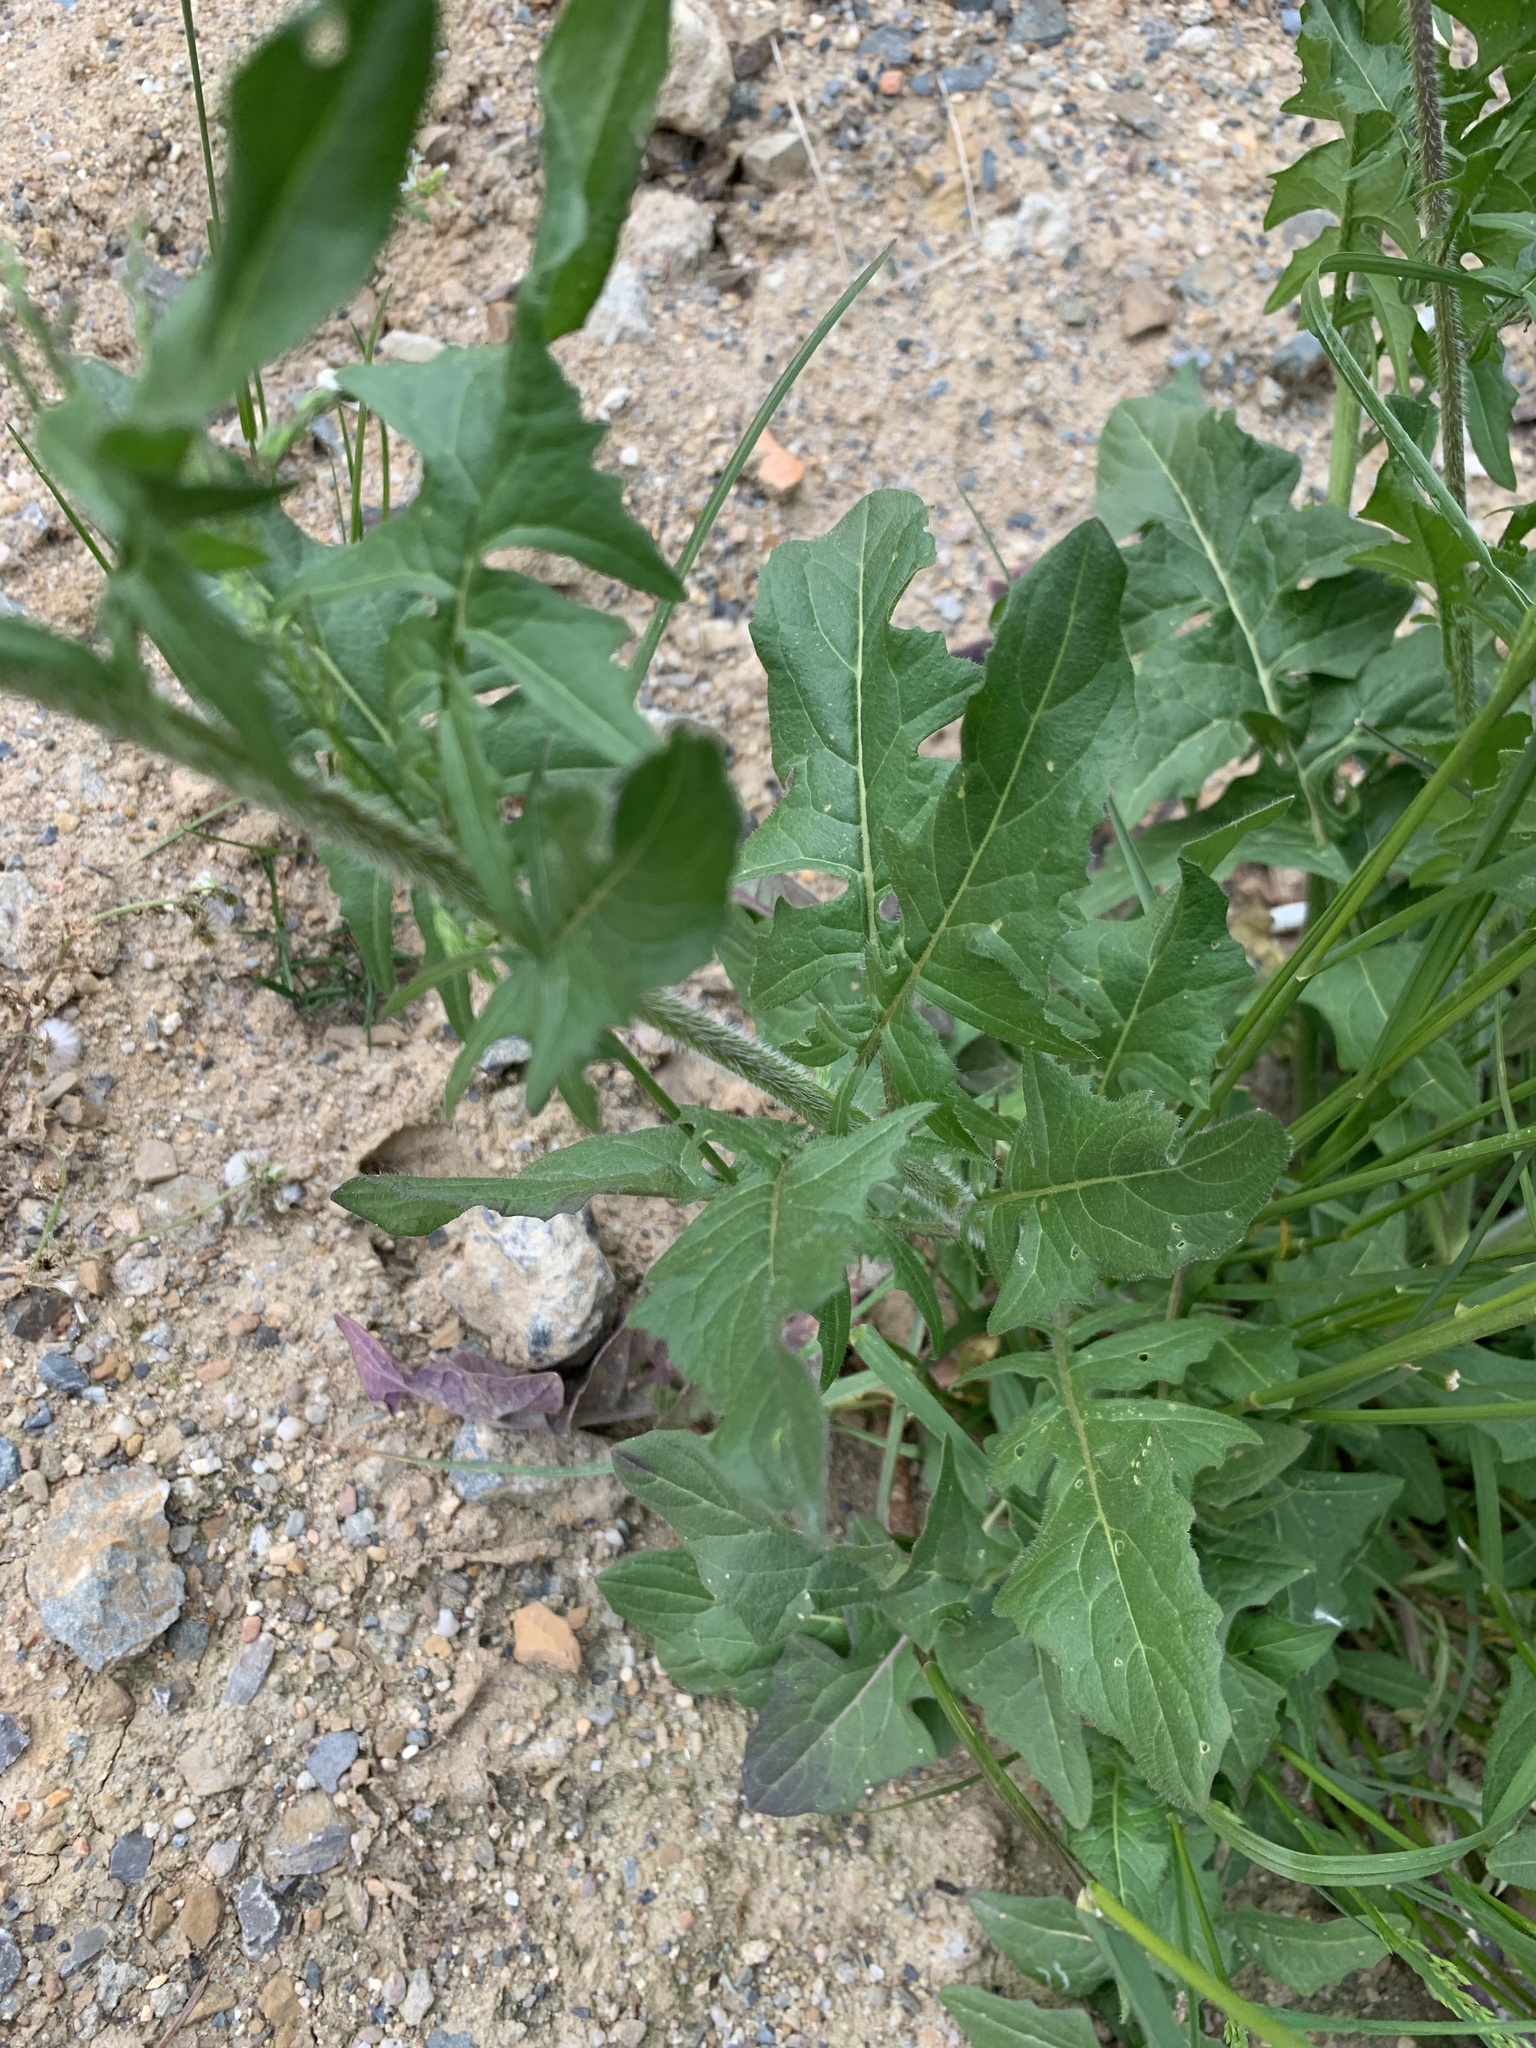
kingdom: Plantae
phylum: Tracheophyta
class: Magnoliopsida
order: Brassicales
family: Brassicaceae
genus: Sisymbrium
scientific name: Sisymbrium loeselii
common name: False london-rocket
